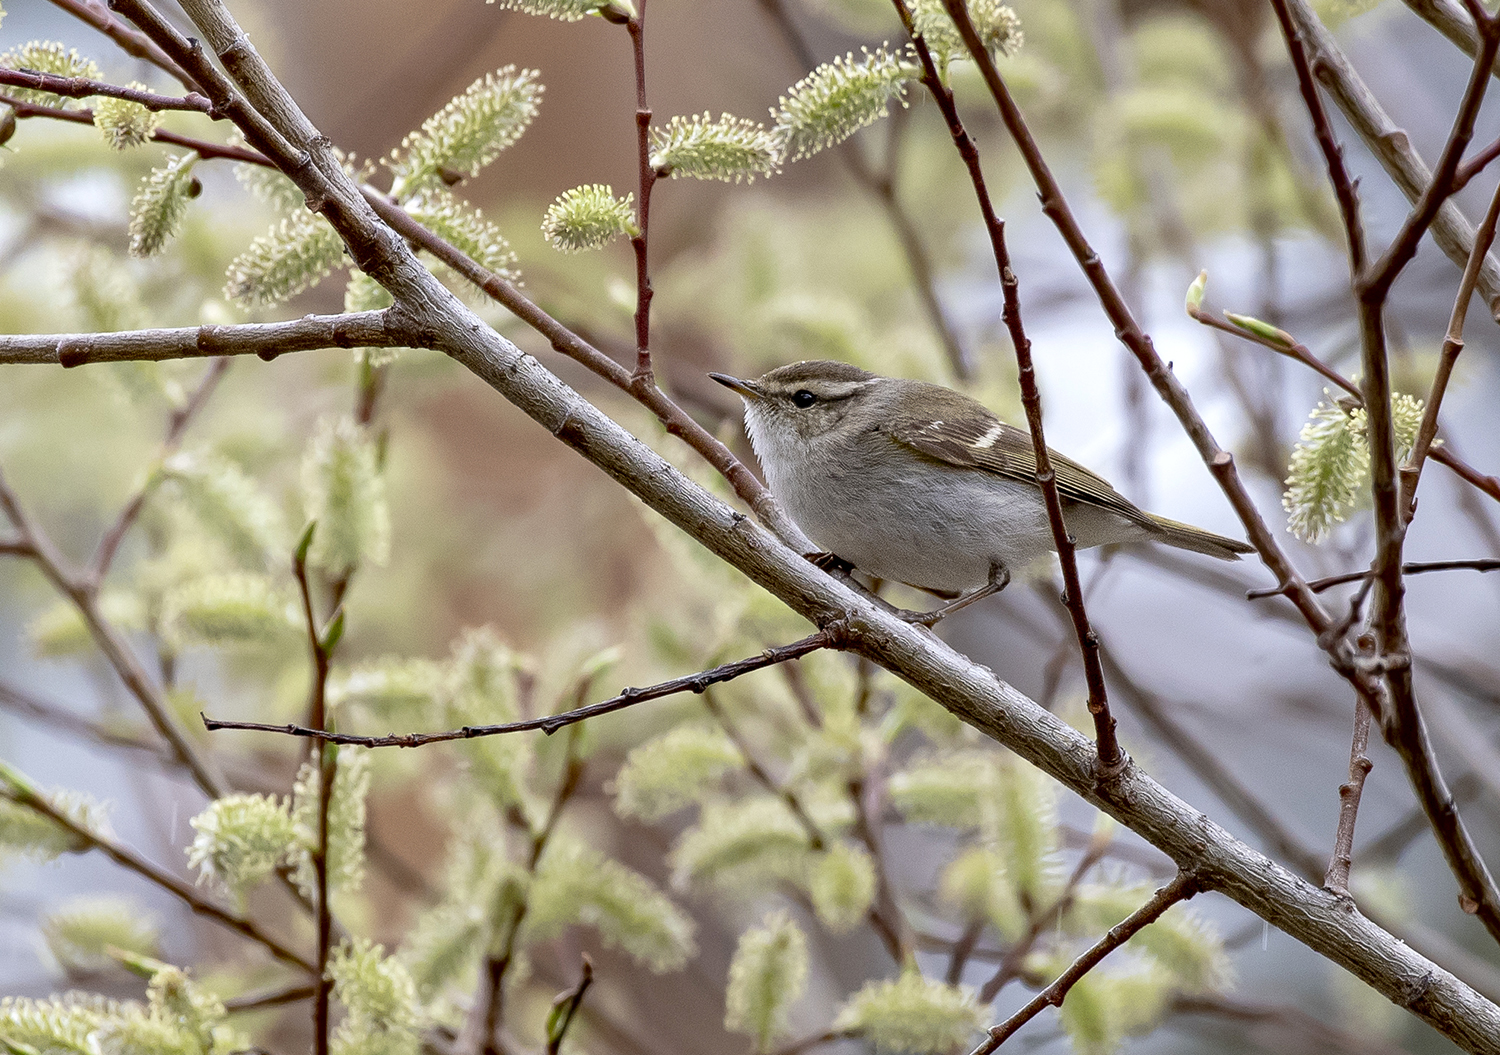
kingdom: Animalia
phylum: Chordata
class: Aves
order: Passeriformes
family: Phylloscopidae
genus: Phylloscopus
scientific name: Phylloscopus inornatus
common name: Yellow-browed warbler
